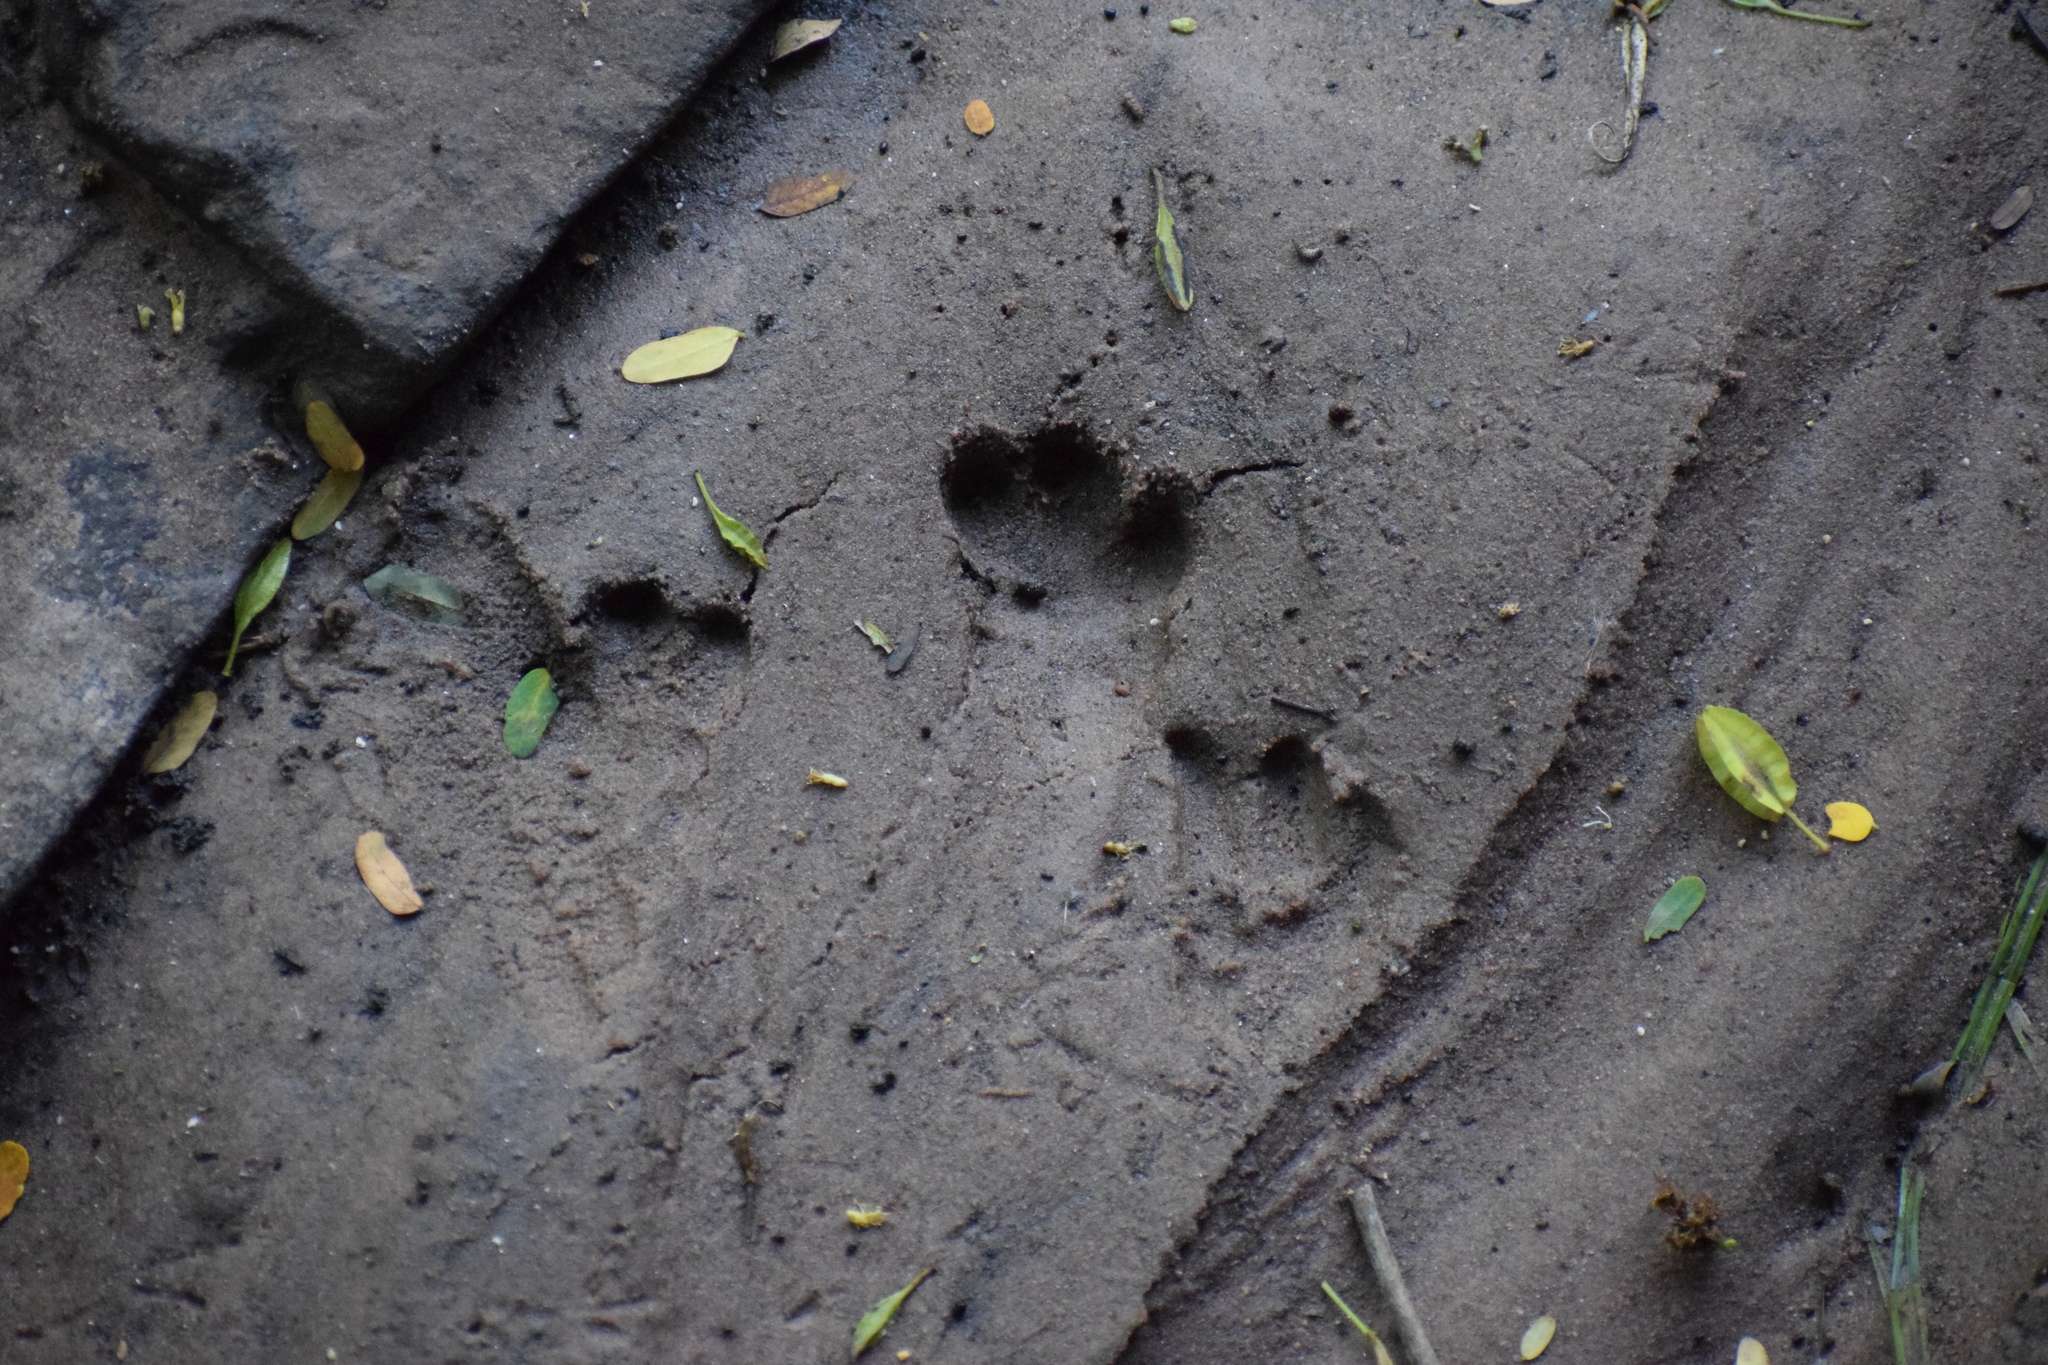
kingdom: Animalia
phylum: Chordata
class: Mammalia
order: Hyracoidea
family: Procaviidae
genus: Procavia
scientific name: Procavia capensis
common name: Rock hyrax
